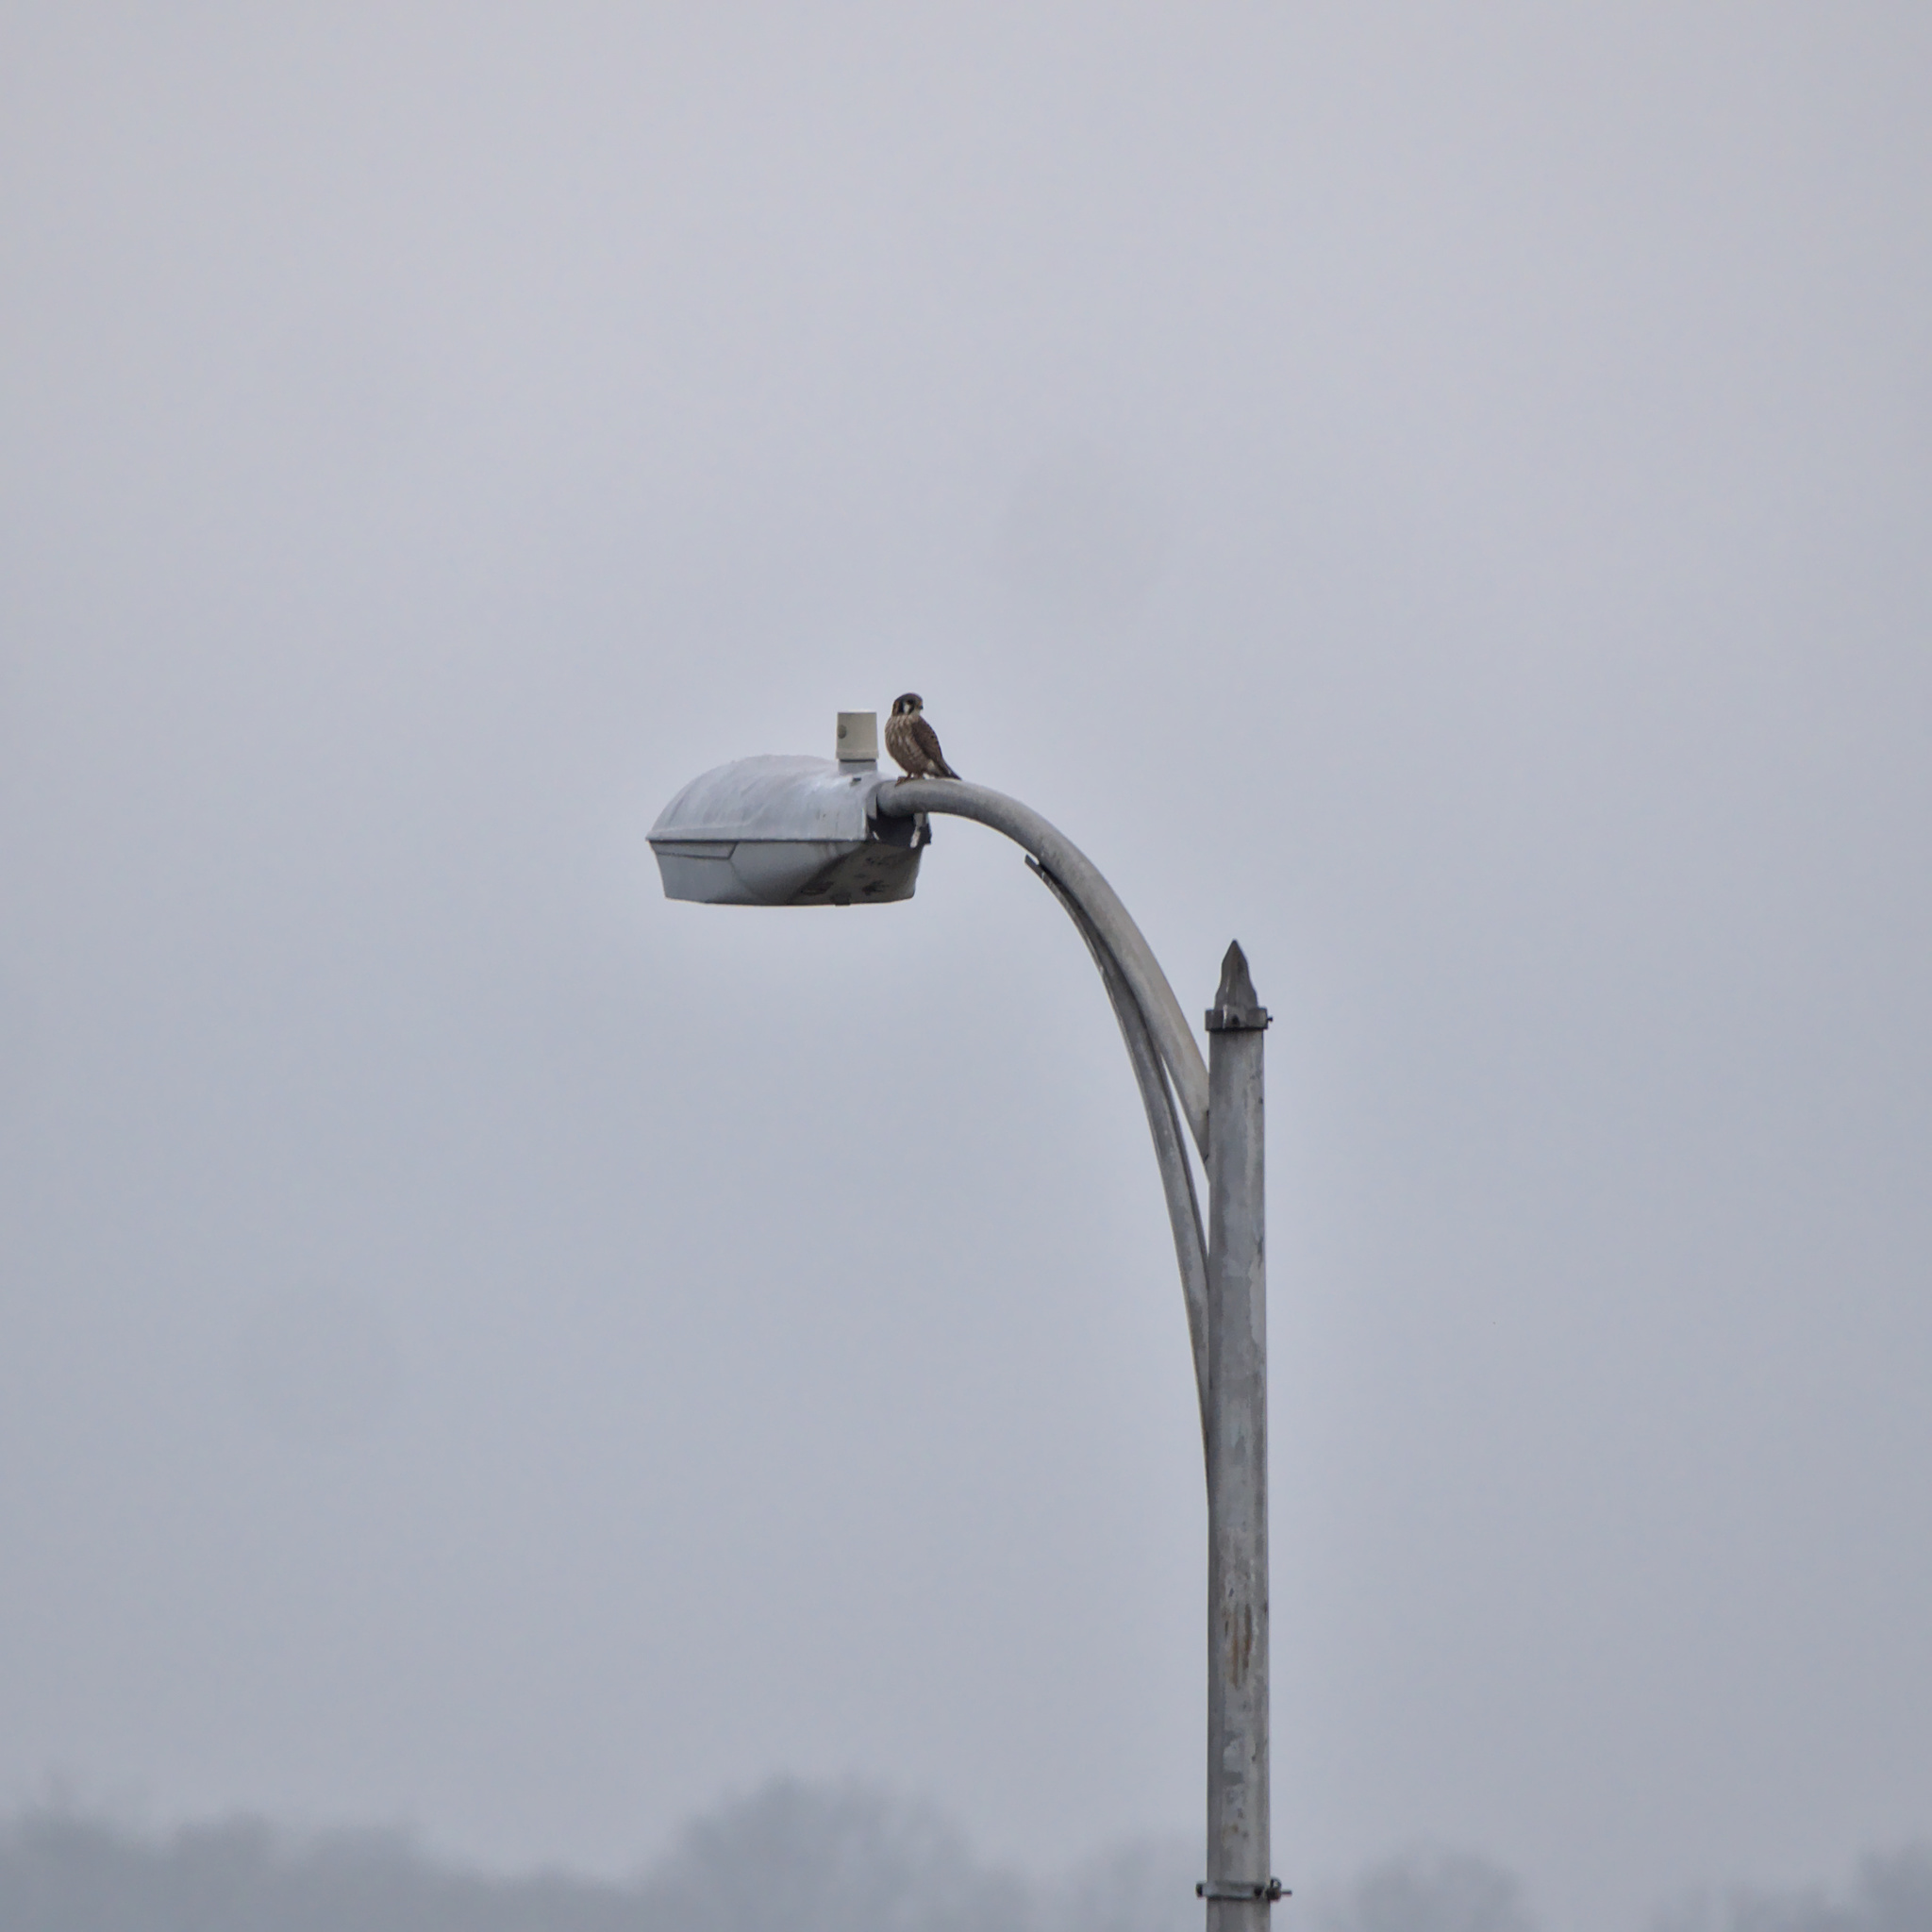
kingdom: Animalia
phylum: Chordata
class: Aves
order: Falconiformes
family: Falconidae
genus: Falco
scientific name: Falco sparverius
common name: American kestrel
